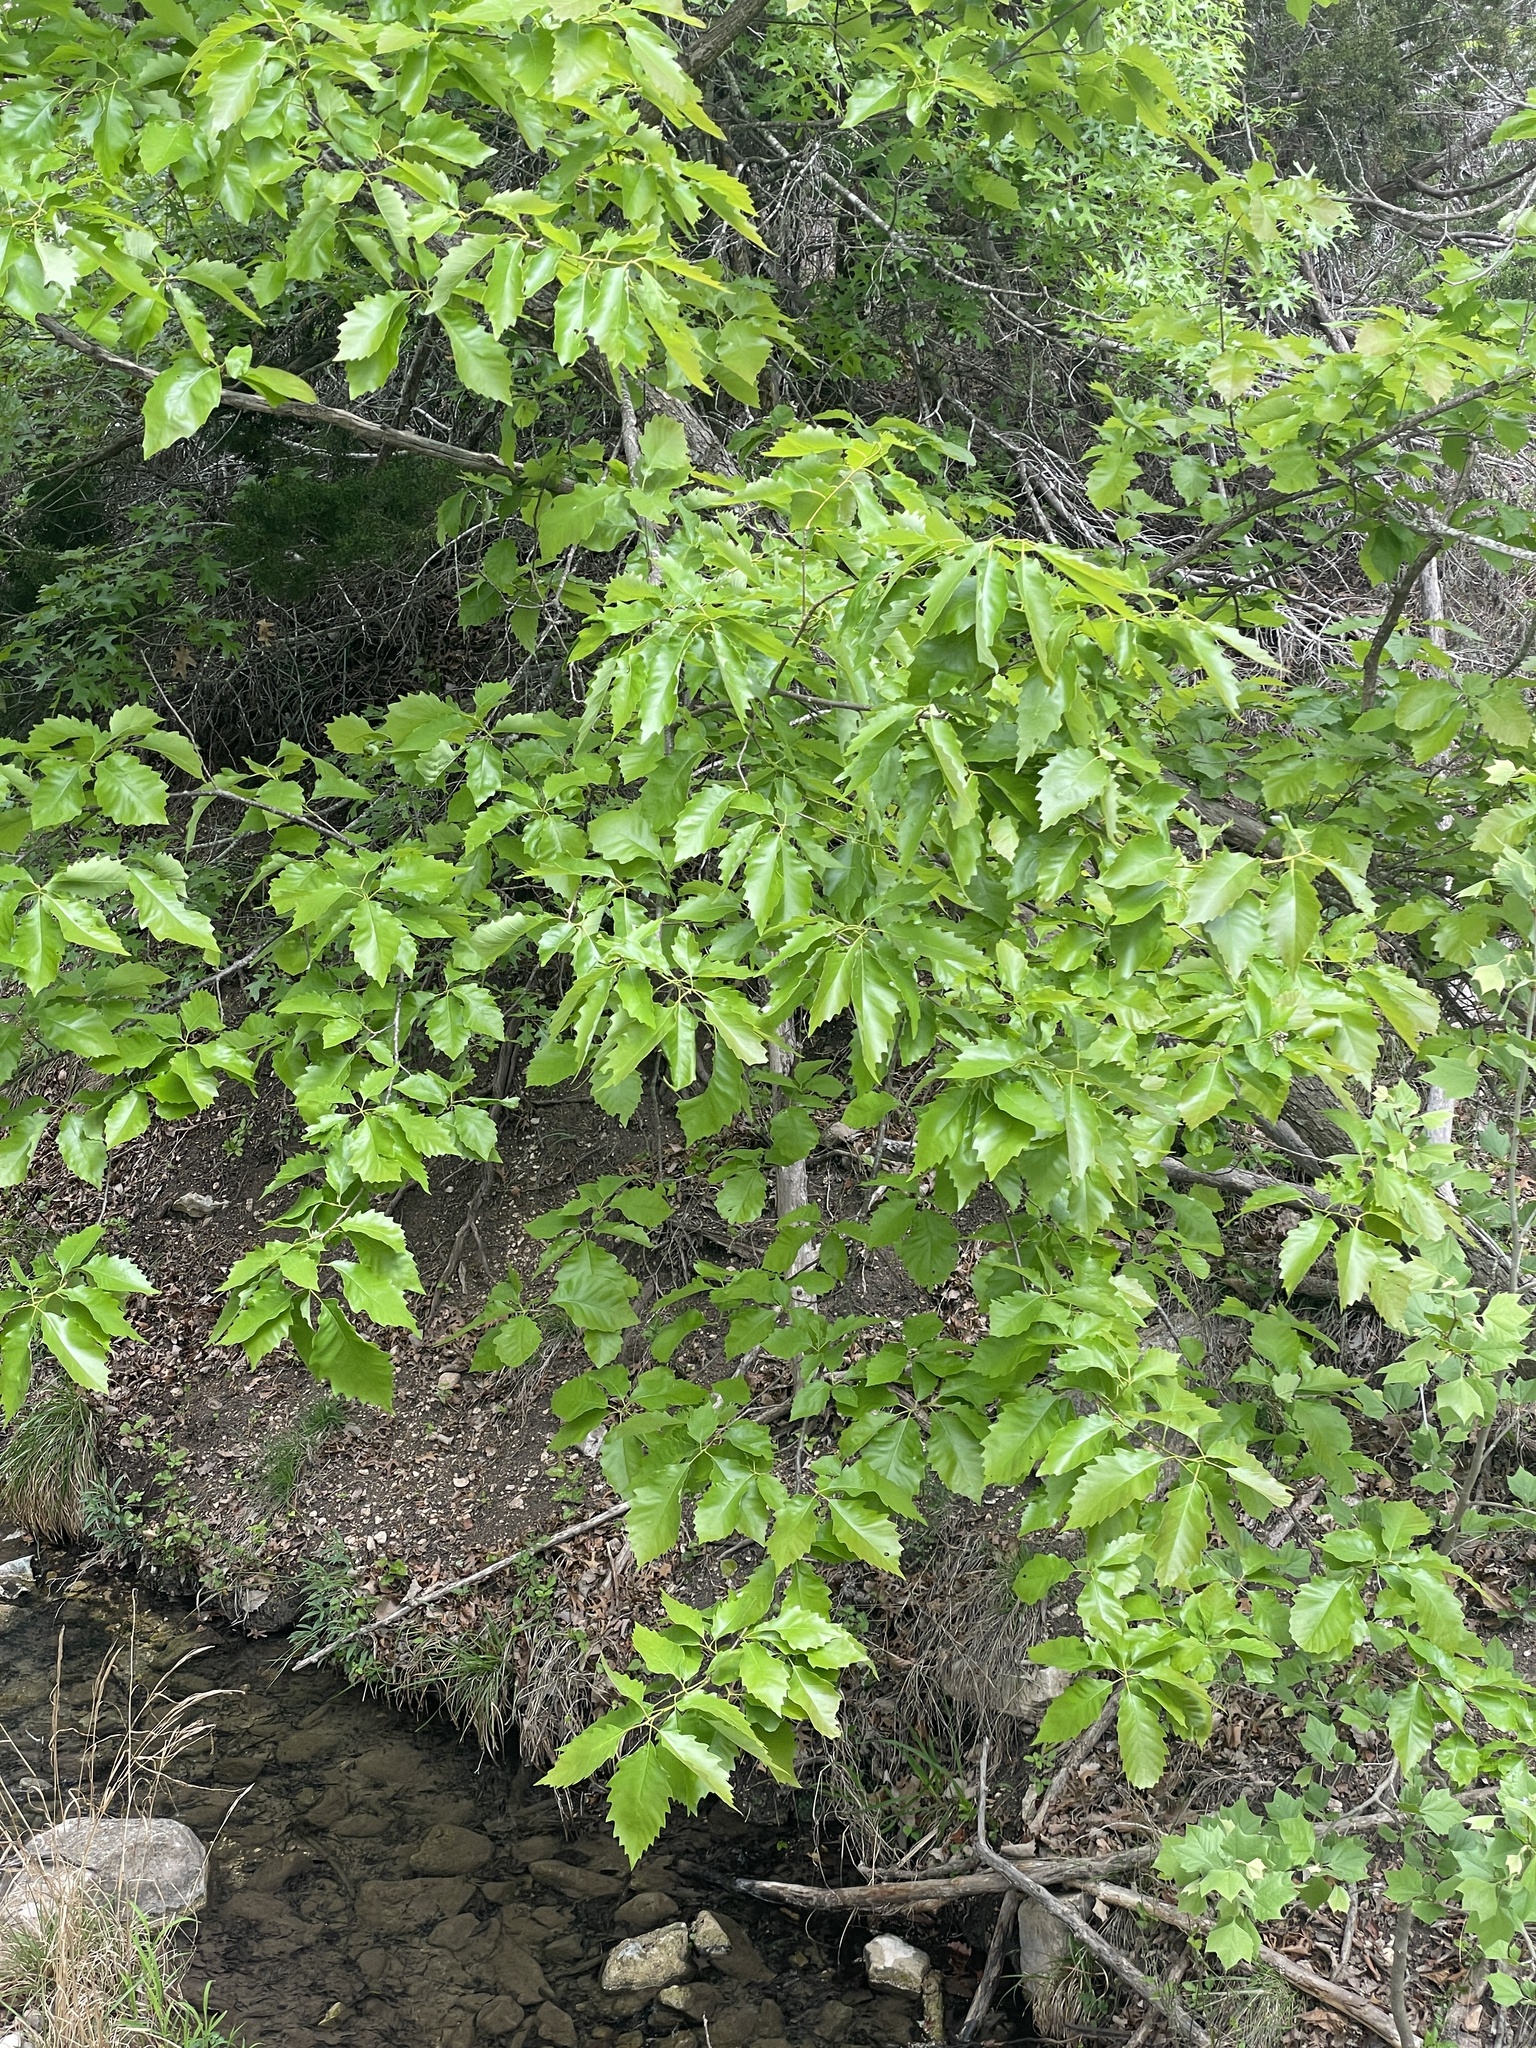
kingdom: Plantae
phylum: Tracheophyta
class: Magnoliopsida
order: Fagales
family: Fagaceae
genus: Quercus
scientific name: Quercus muehlenbergii
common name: Chinkapin oak
